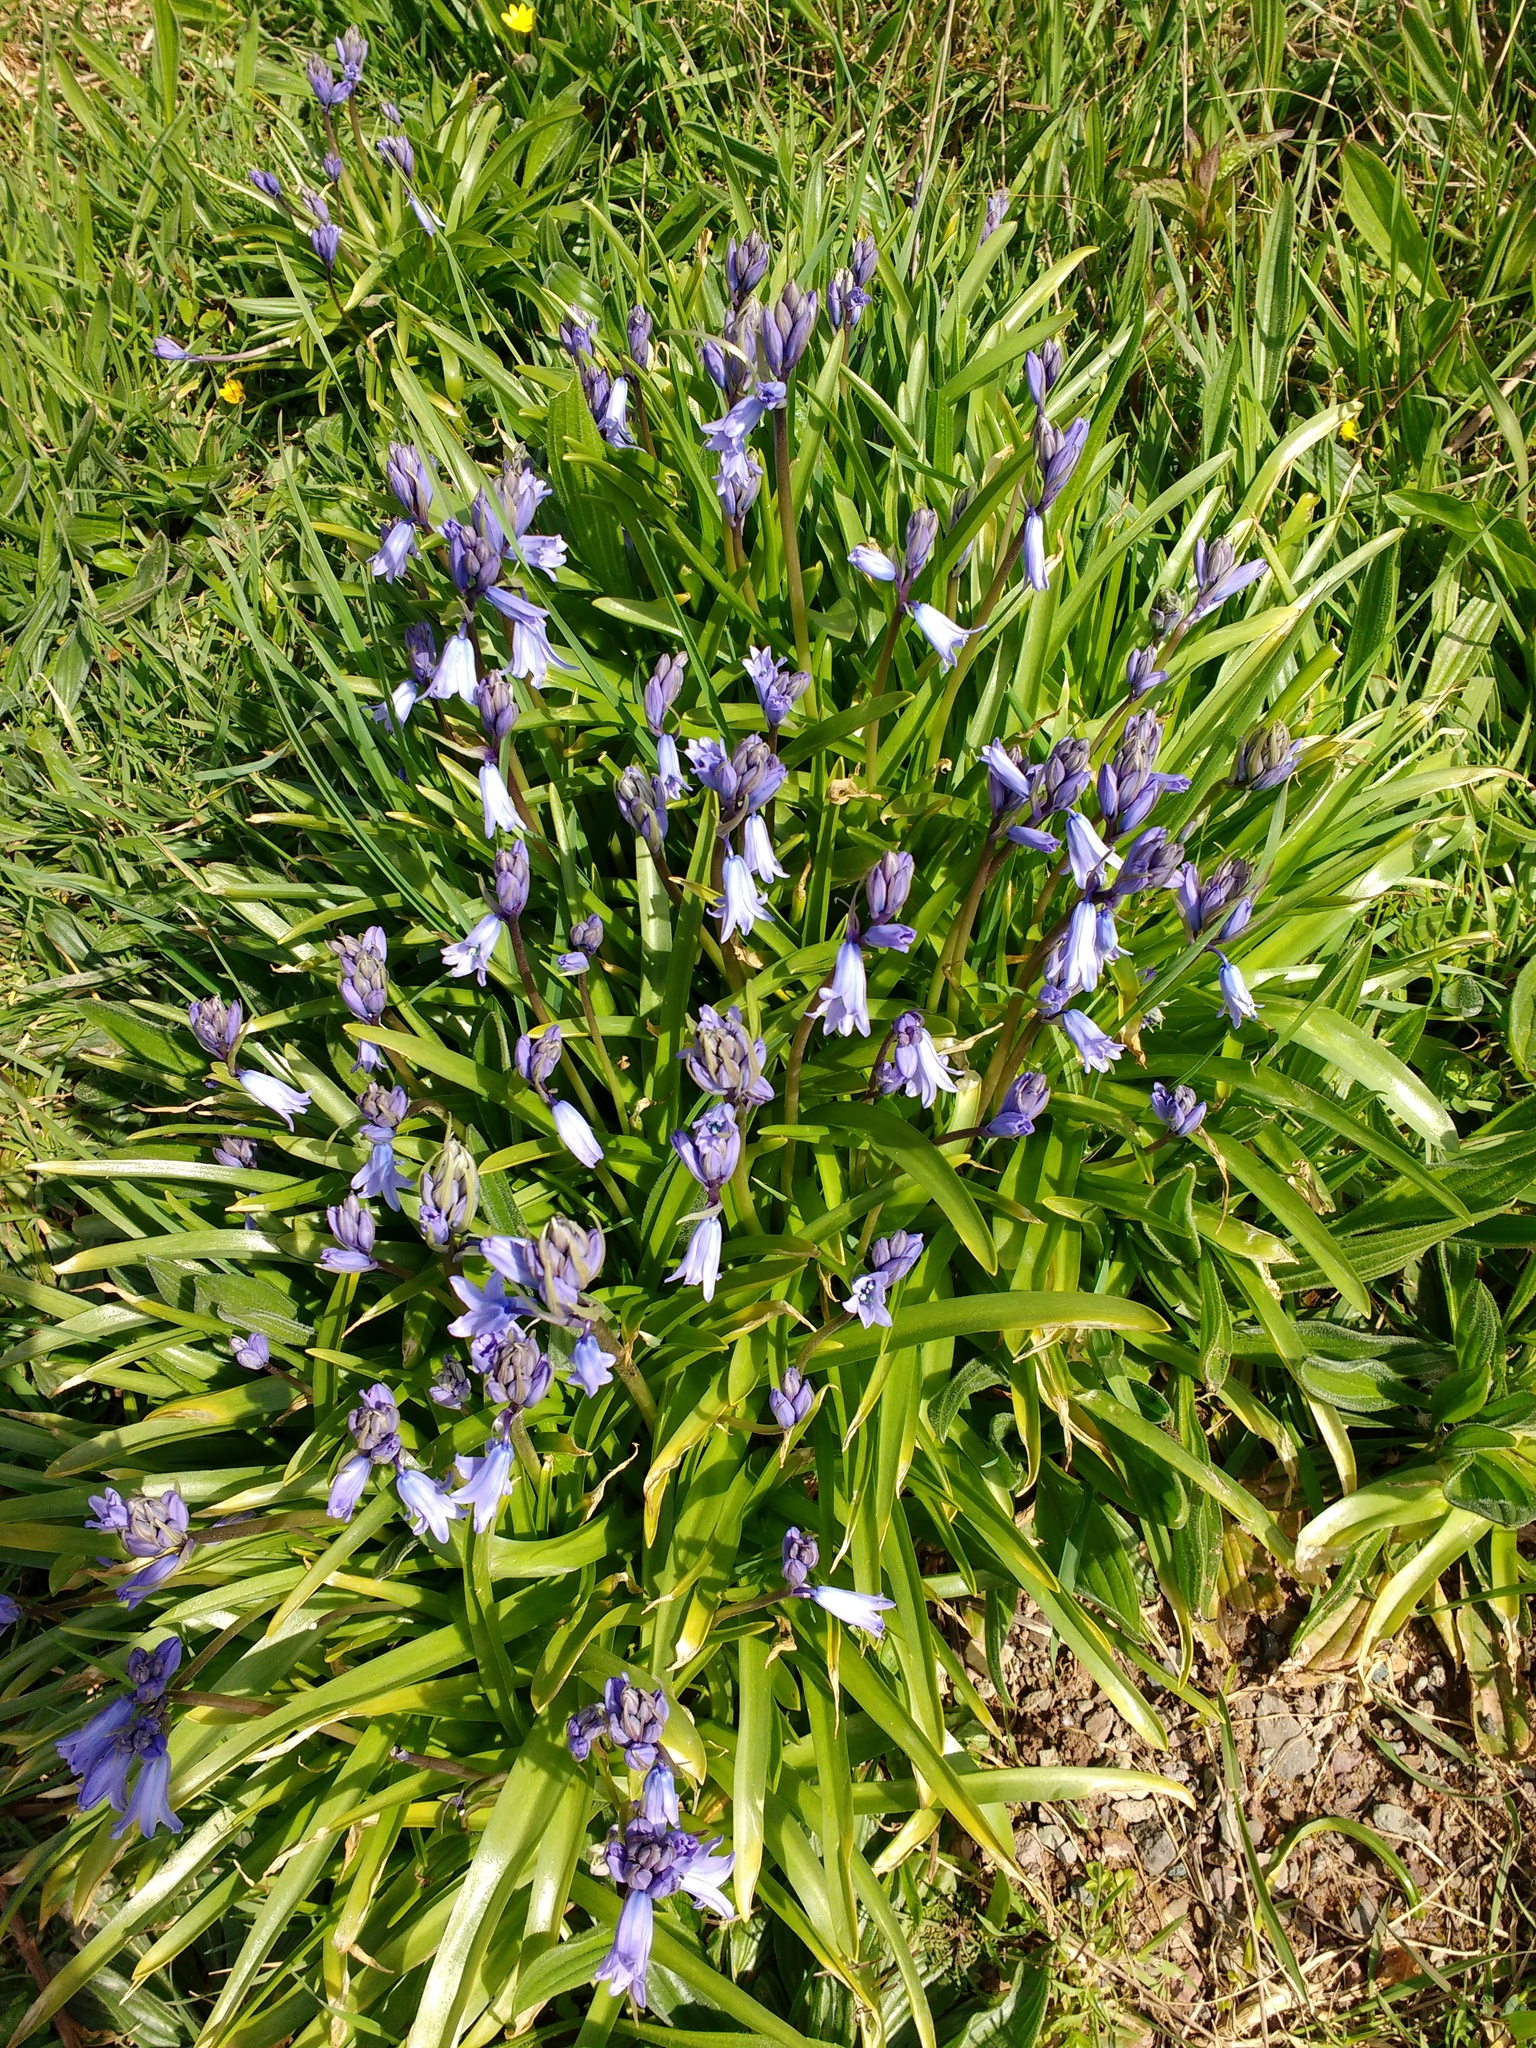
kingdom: Plantae
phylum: Tracheophyta
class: Liliopsida
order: Asparagales
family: Asparagaceae
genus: Hyacinthoides
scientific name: Hyacinthoides hispanica
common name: Spanish bluebell
